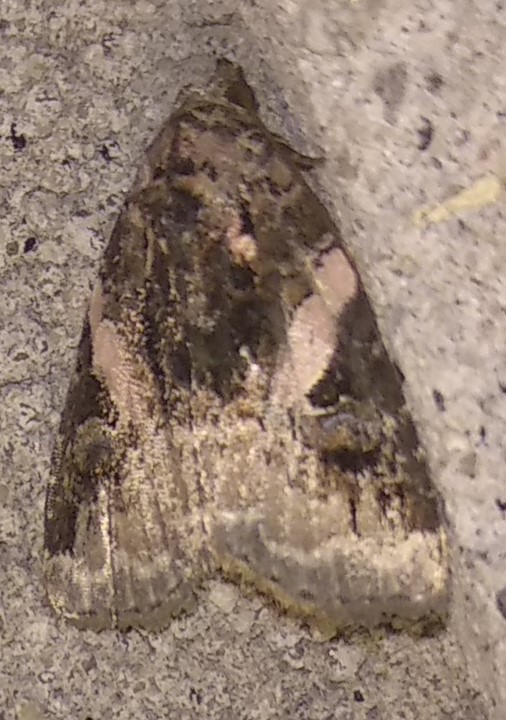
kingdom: Animalia
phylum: Arthropoda
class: Insecta
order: Lepidoptera
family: Noctuidae
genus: Pseudeustrotia
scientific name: Pseudeustrotia carneola
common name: Pink-barred lithacodia moth
